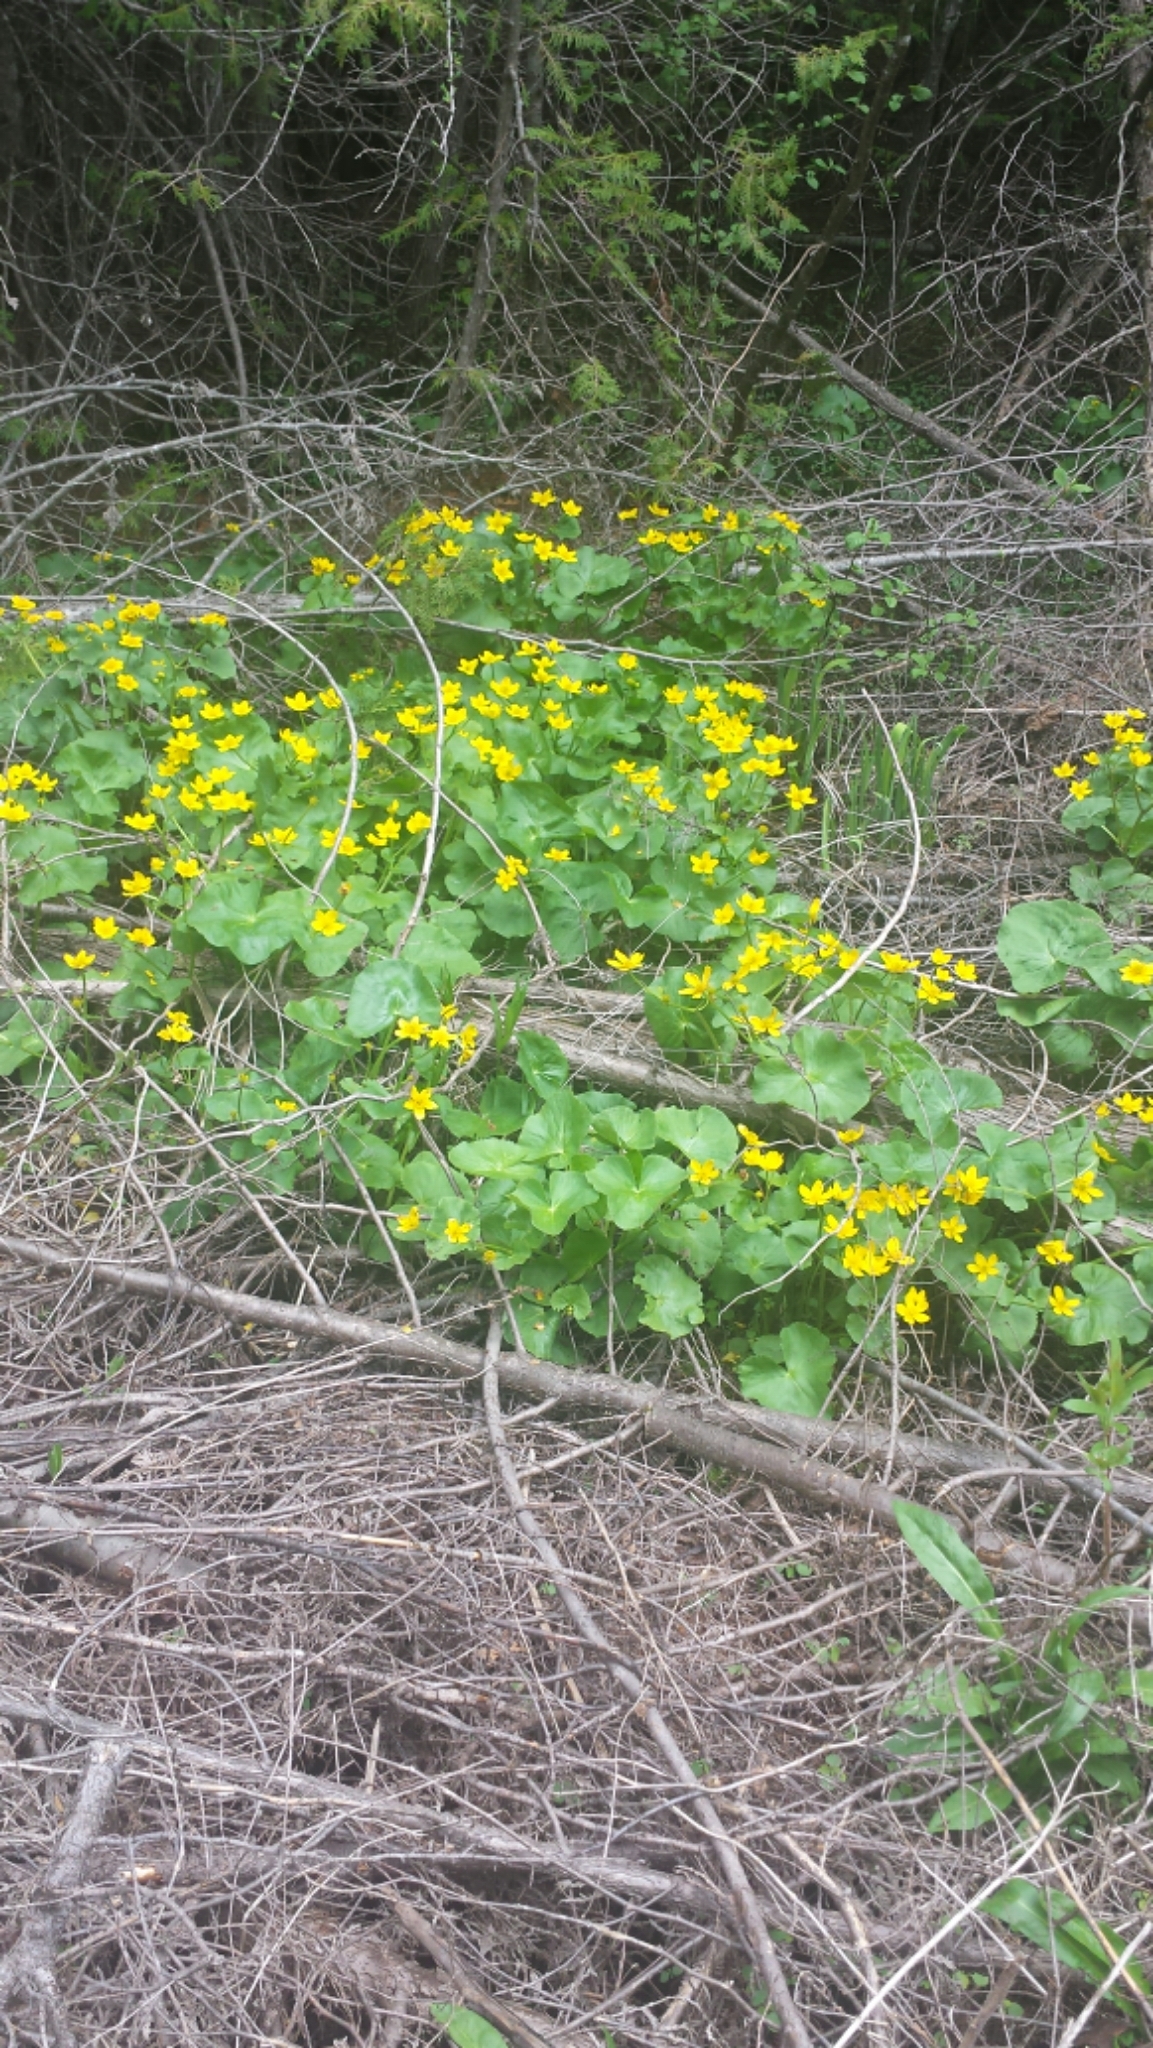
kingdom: Plantae
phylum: Tracheophyta
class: Magnoliopsida
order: Ranunculales
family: Ranunculaceae
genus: Caltha
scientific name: Caltha palustris
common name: Marsh marigold
